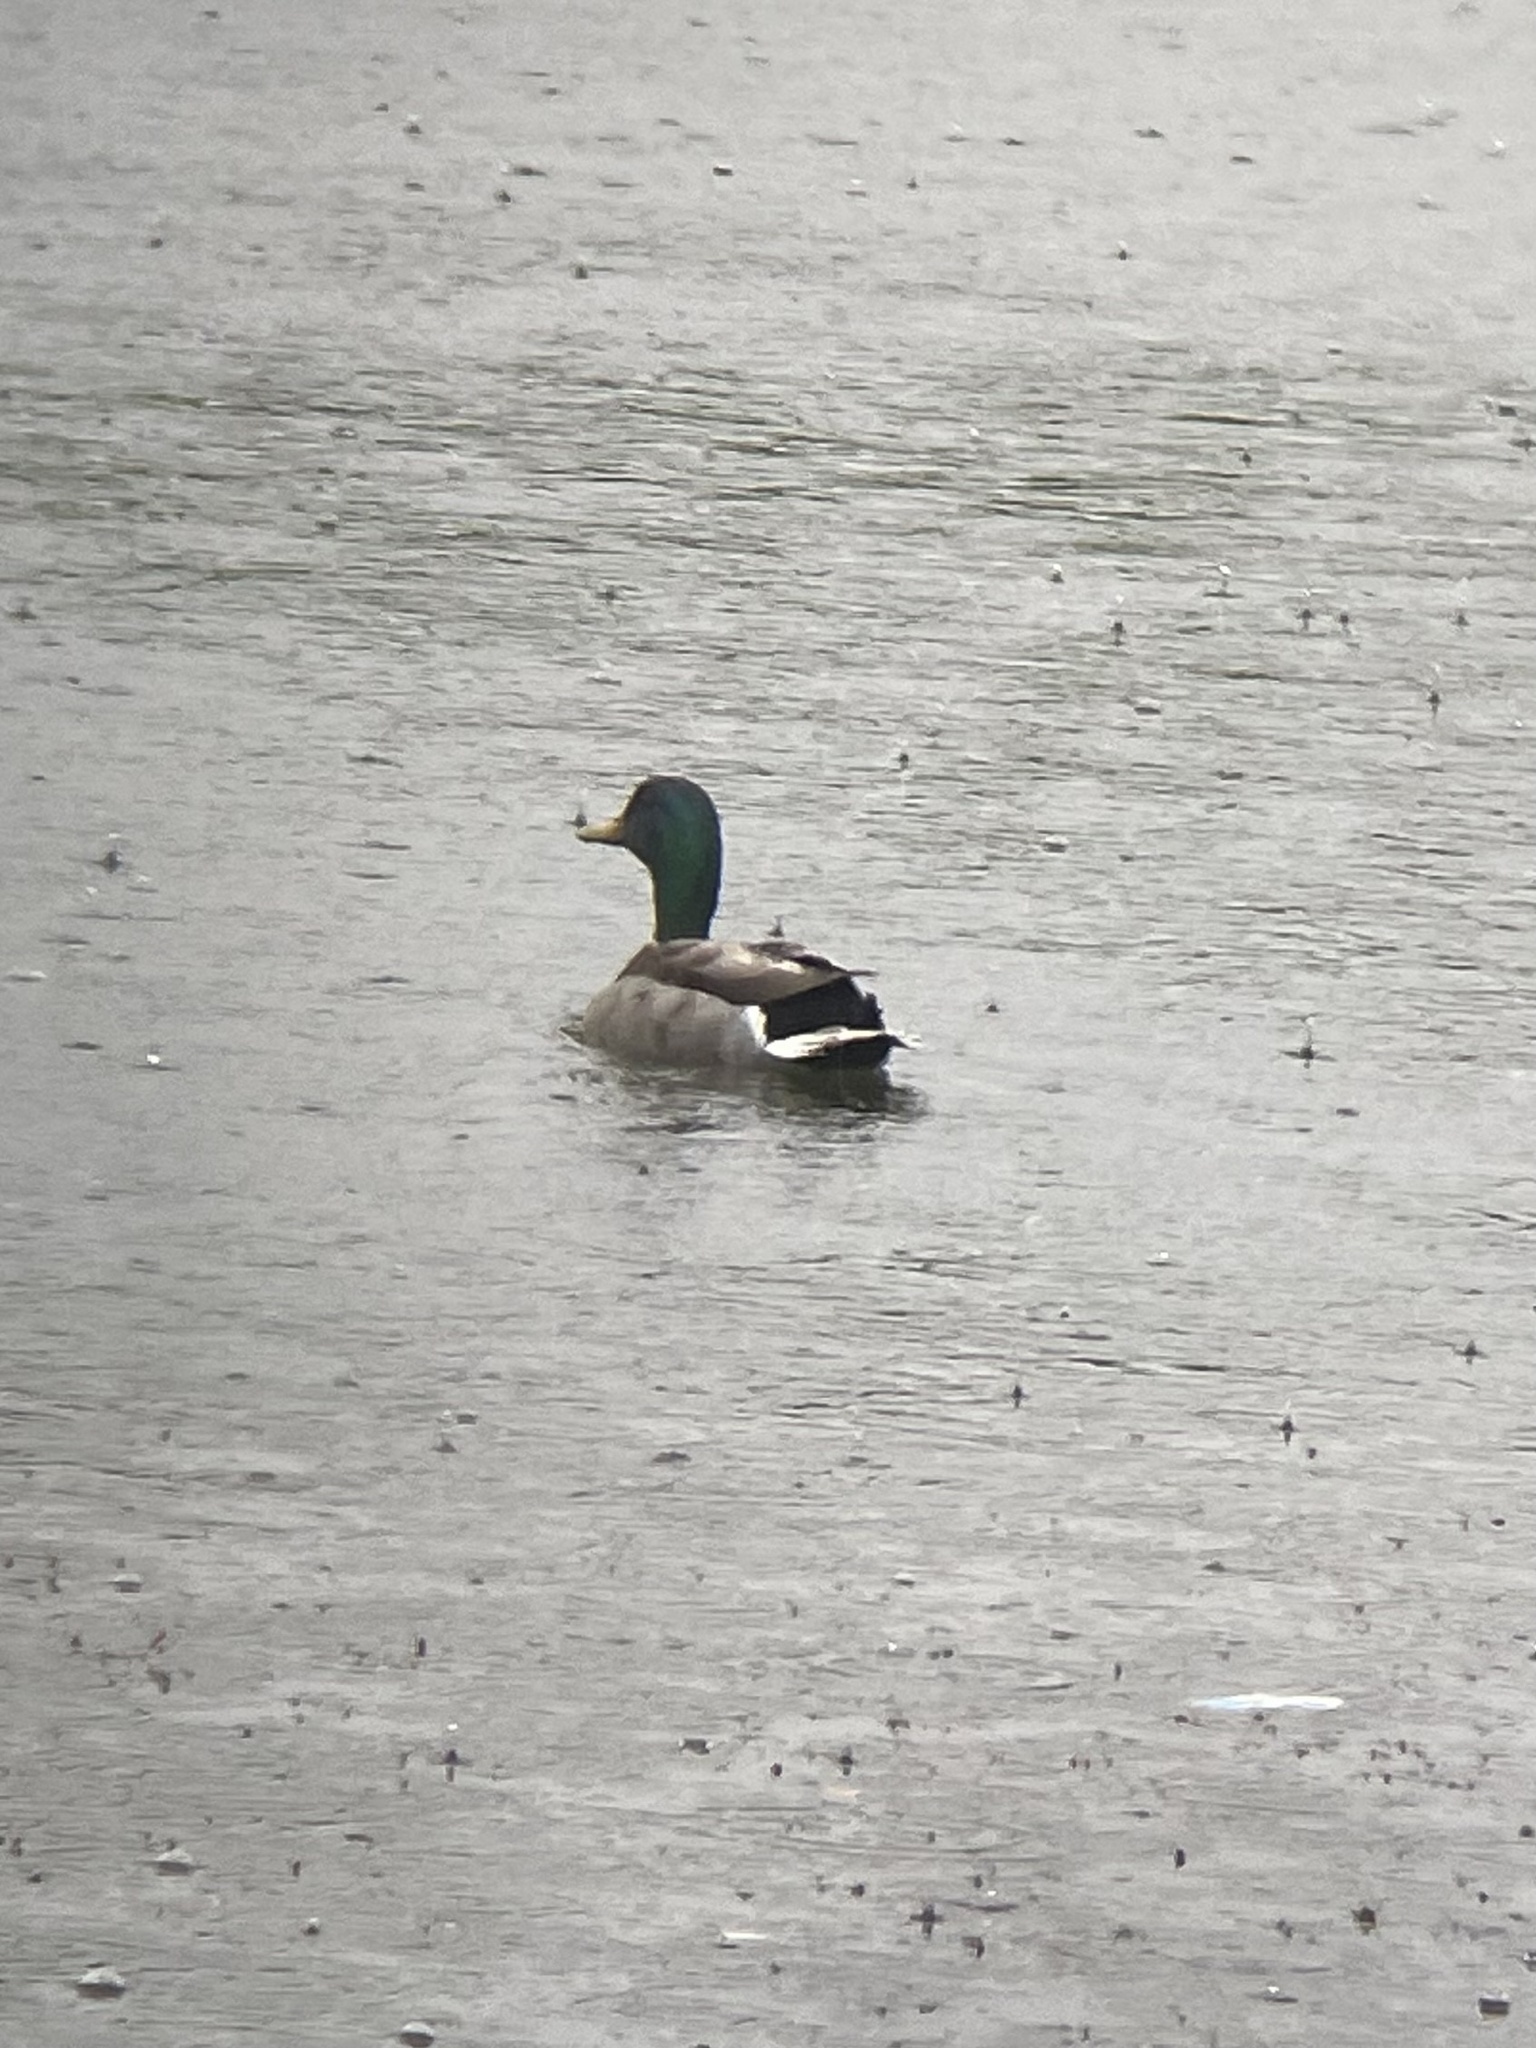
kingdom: Animalia
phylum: Chordata
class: Aves
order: Anseriformes
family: Anatidae
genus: Anas
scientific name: Anas platyrhynchos
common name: Mallard
